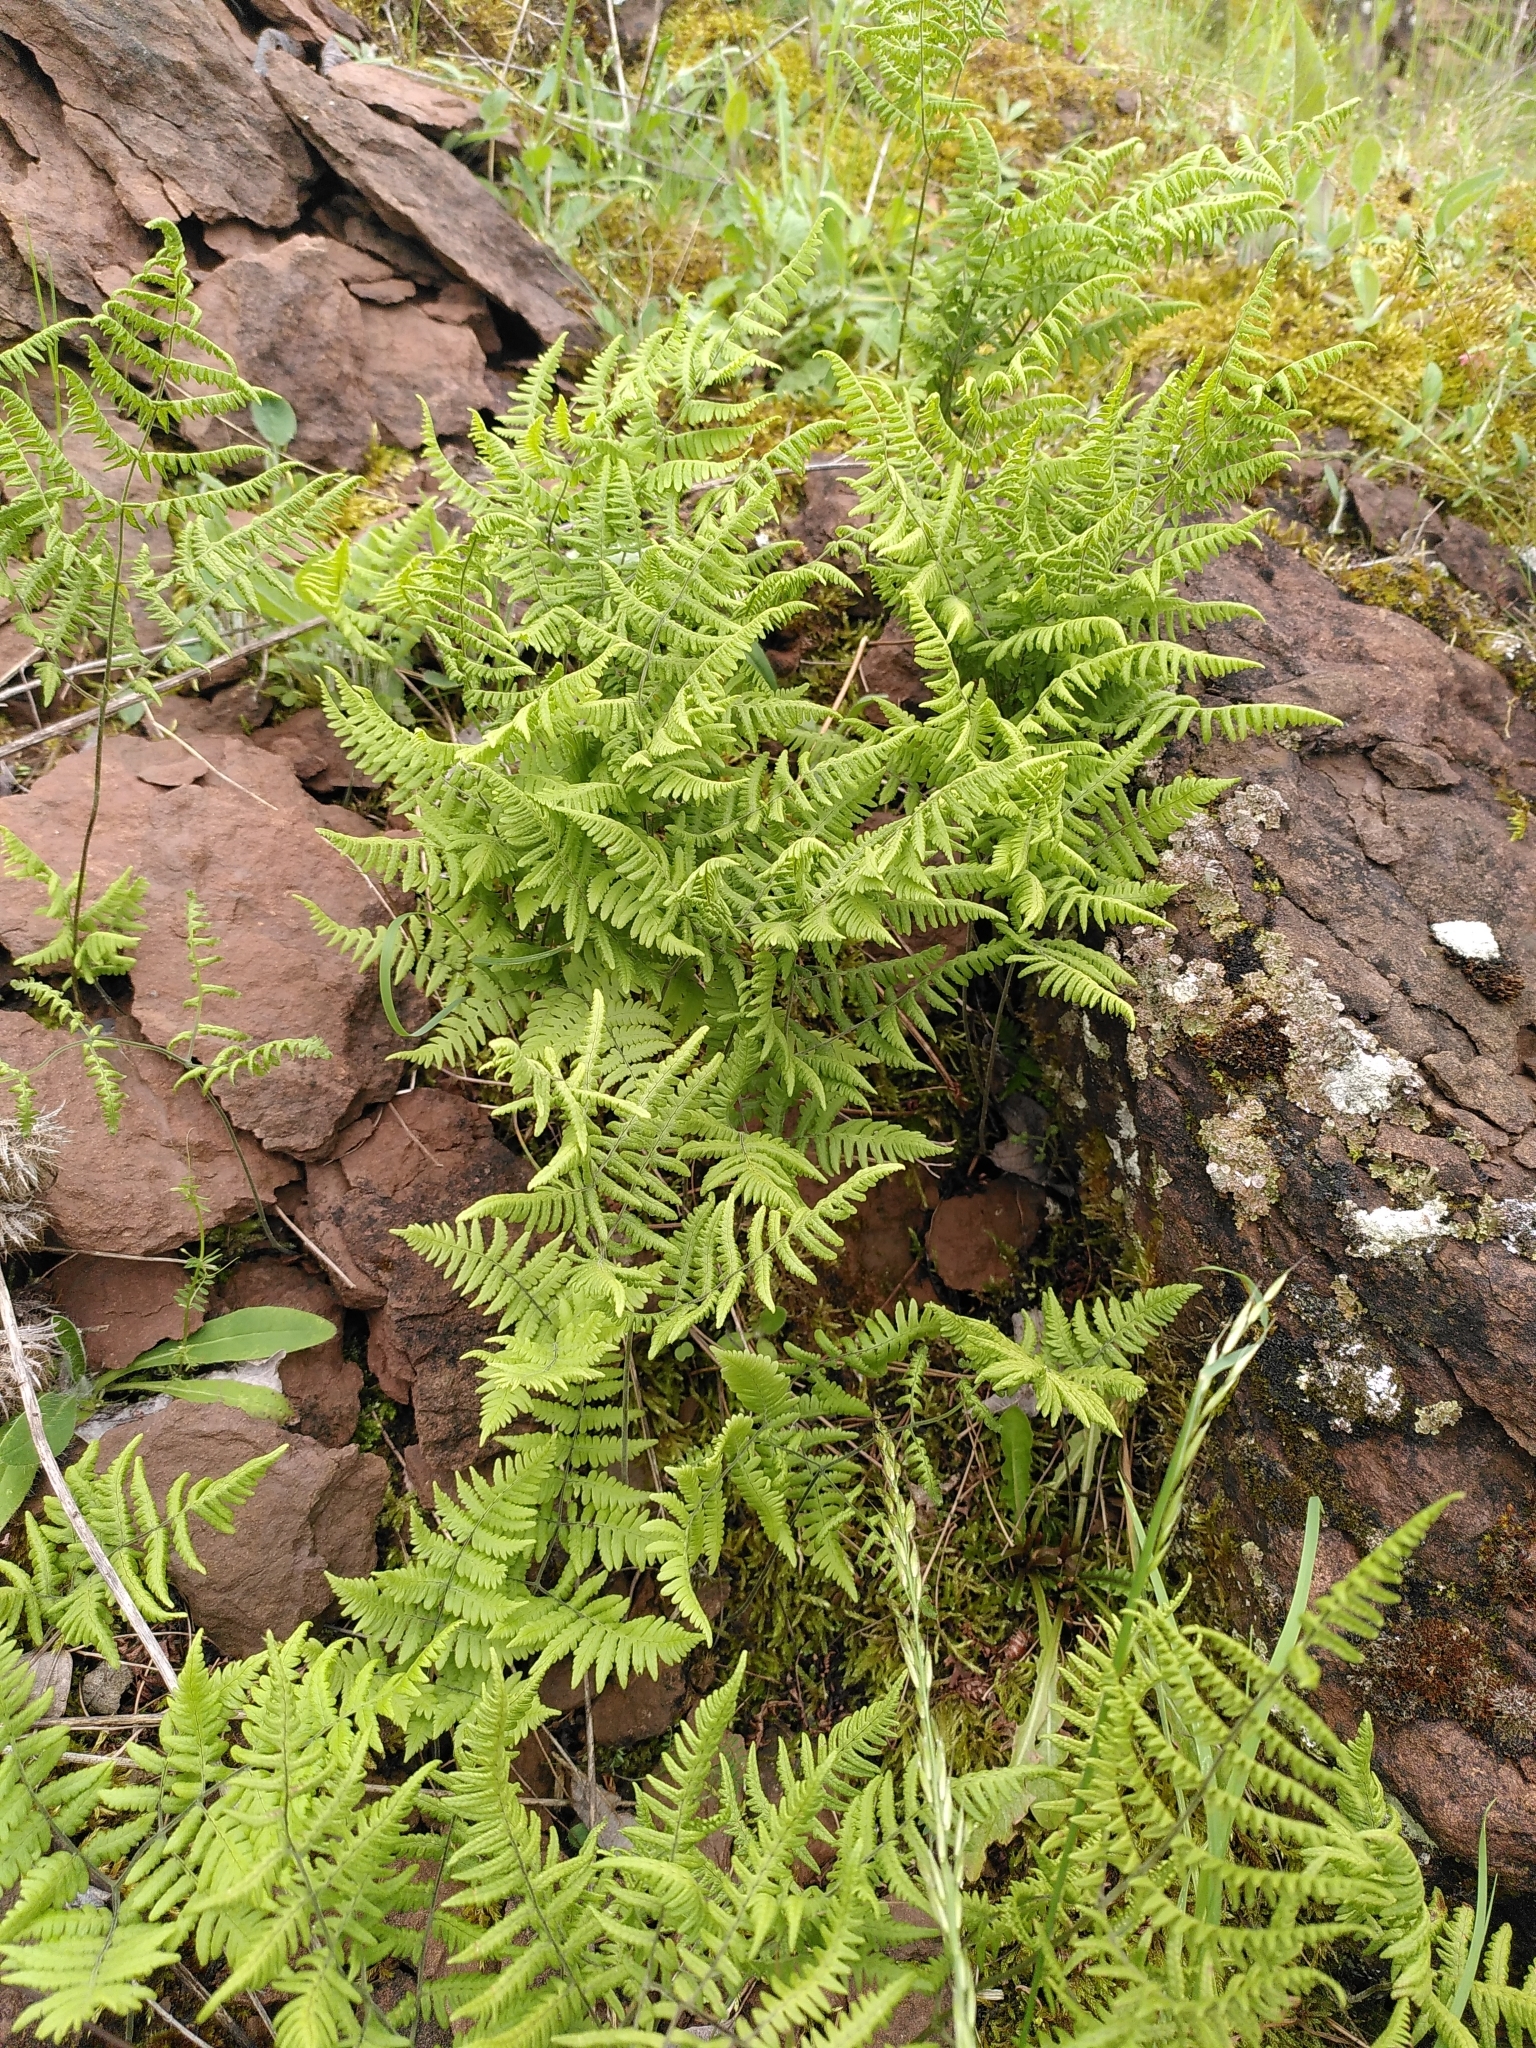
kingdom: Plantae
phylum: Tracheophyta
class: Polypodiopsida
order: Polypodiales
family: Cystopteridaceae
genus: Gymnocarpium
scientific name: Gymnocarpium robertianum
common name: Limestone fern
